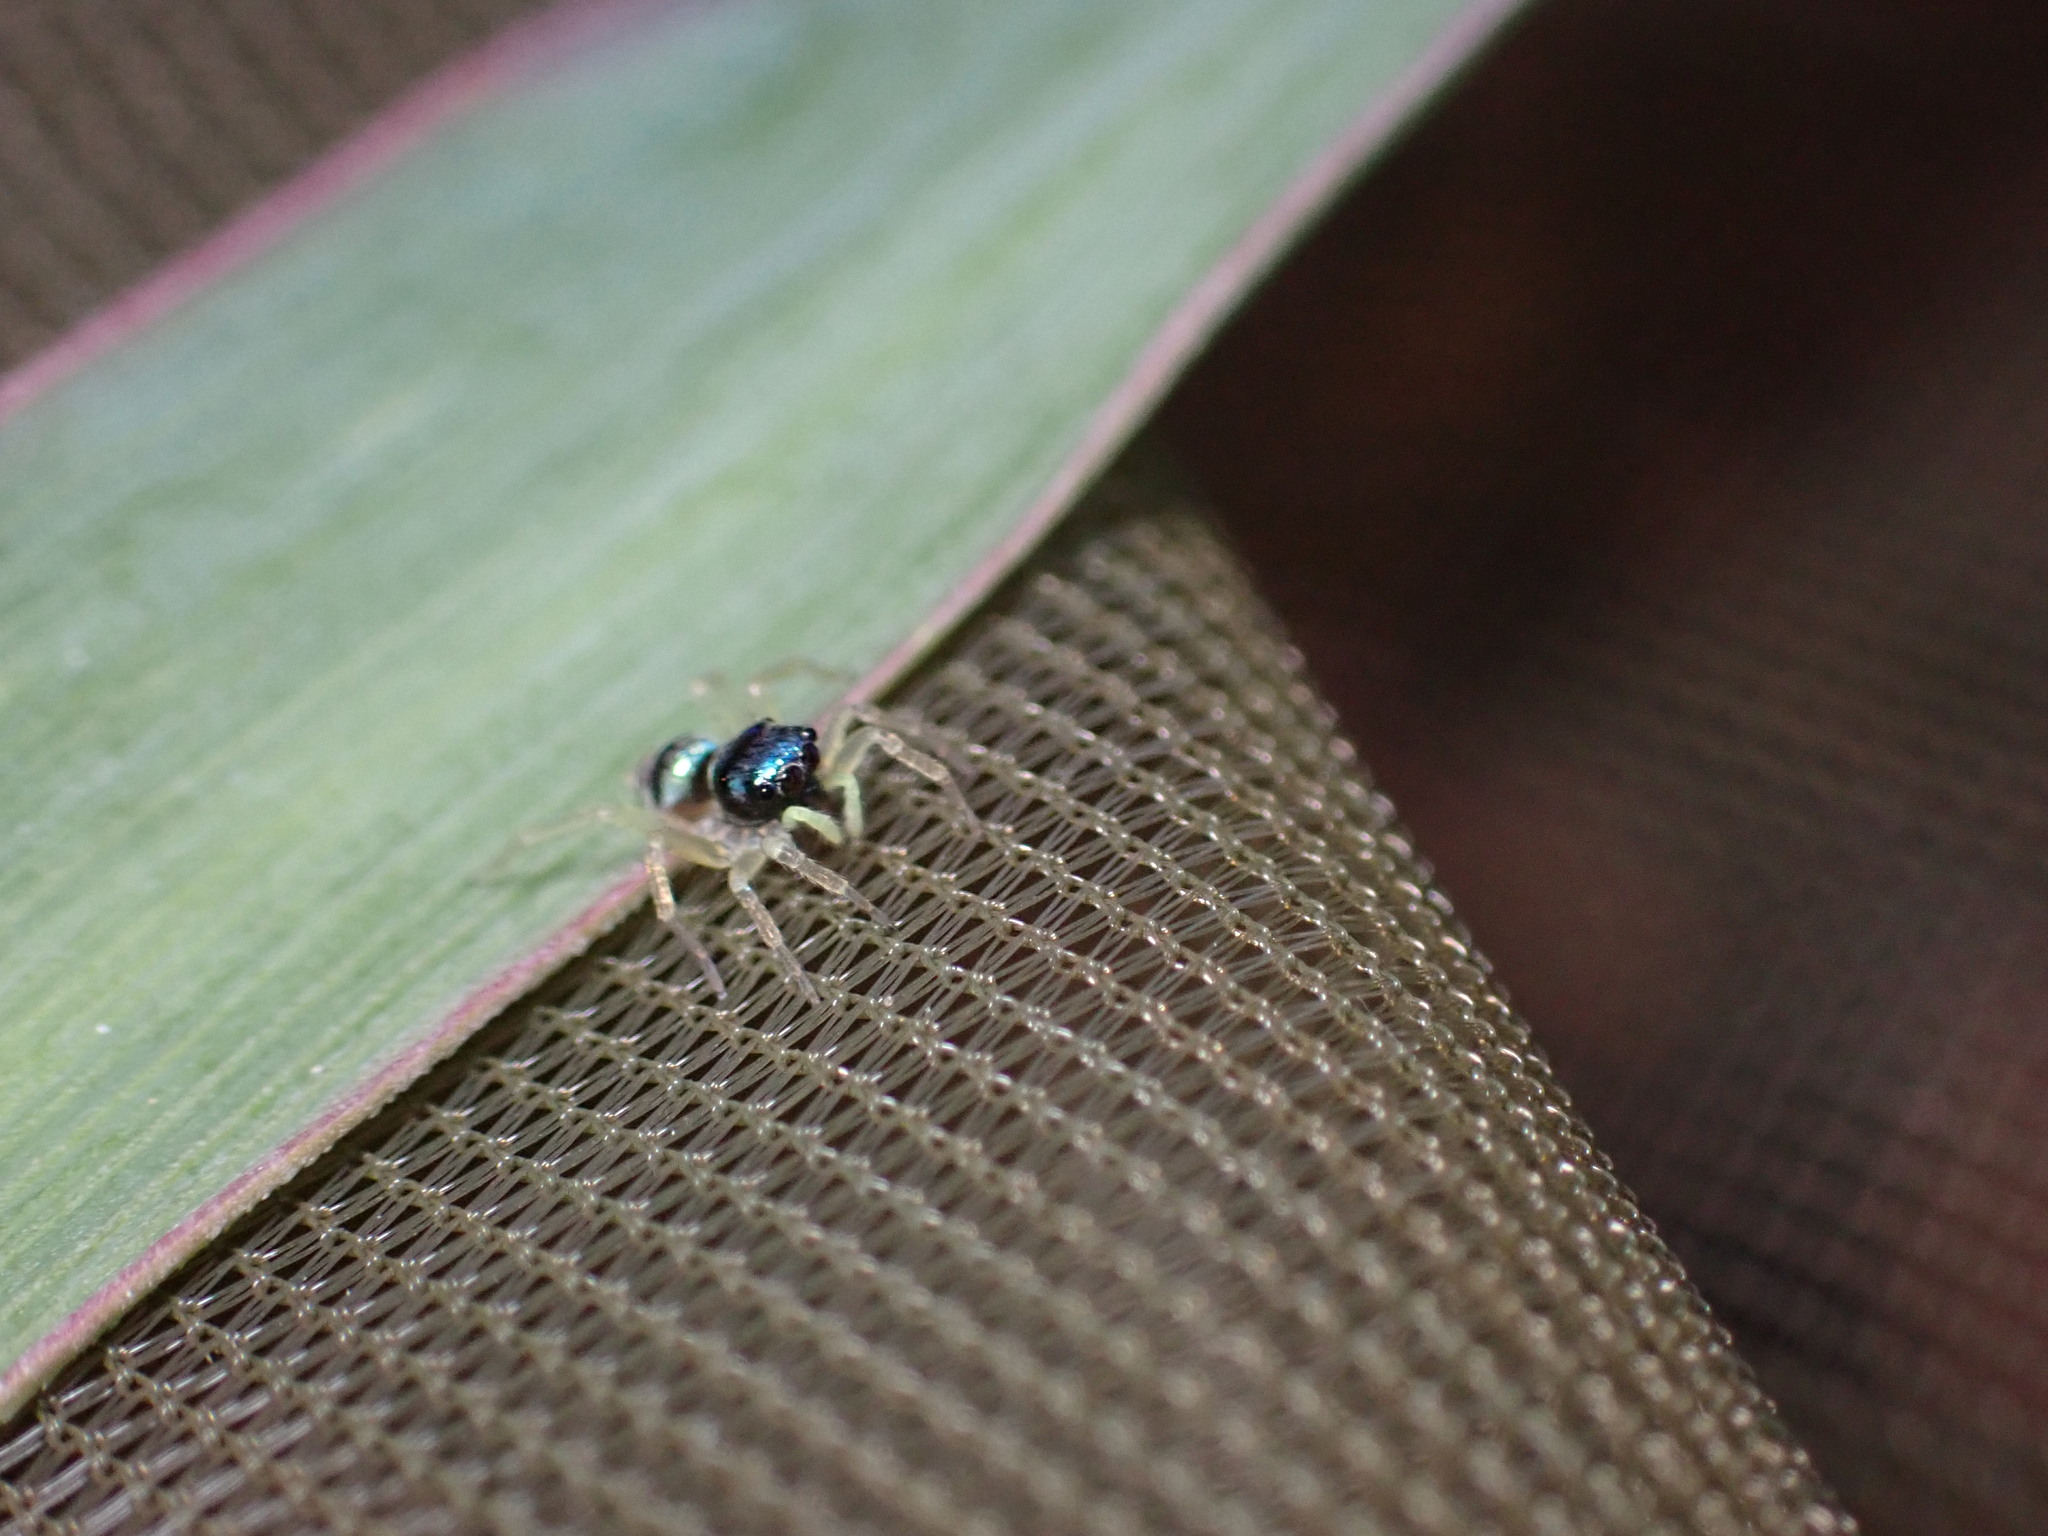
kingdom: Animalia
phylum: Arthropoda
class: Arachnida
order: Araneae
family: Salticidae
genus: Phintella
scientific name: Phintella vittata
